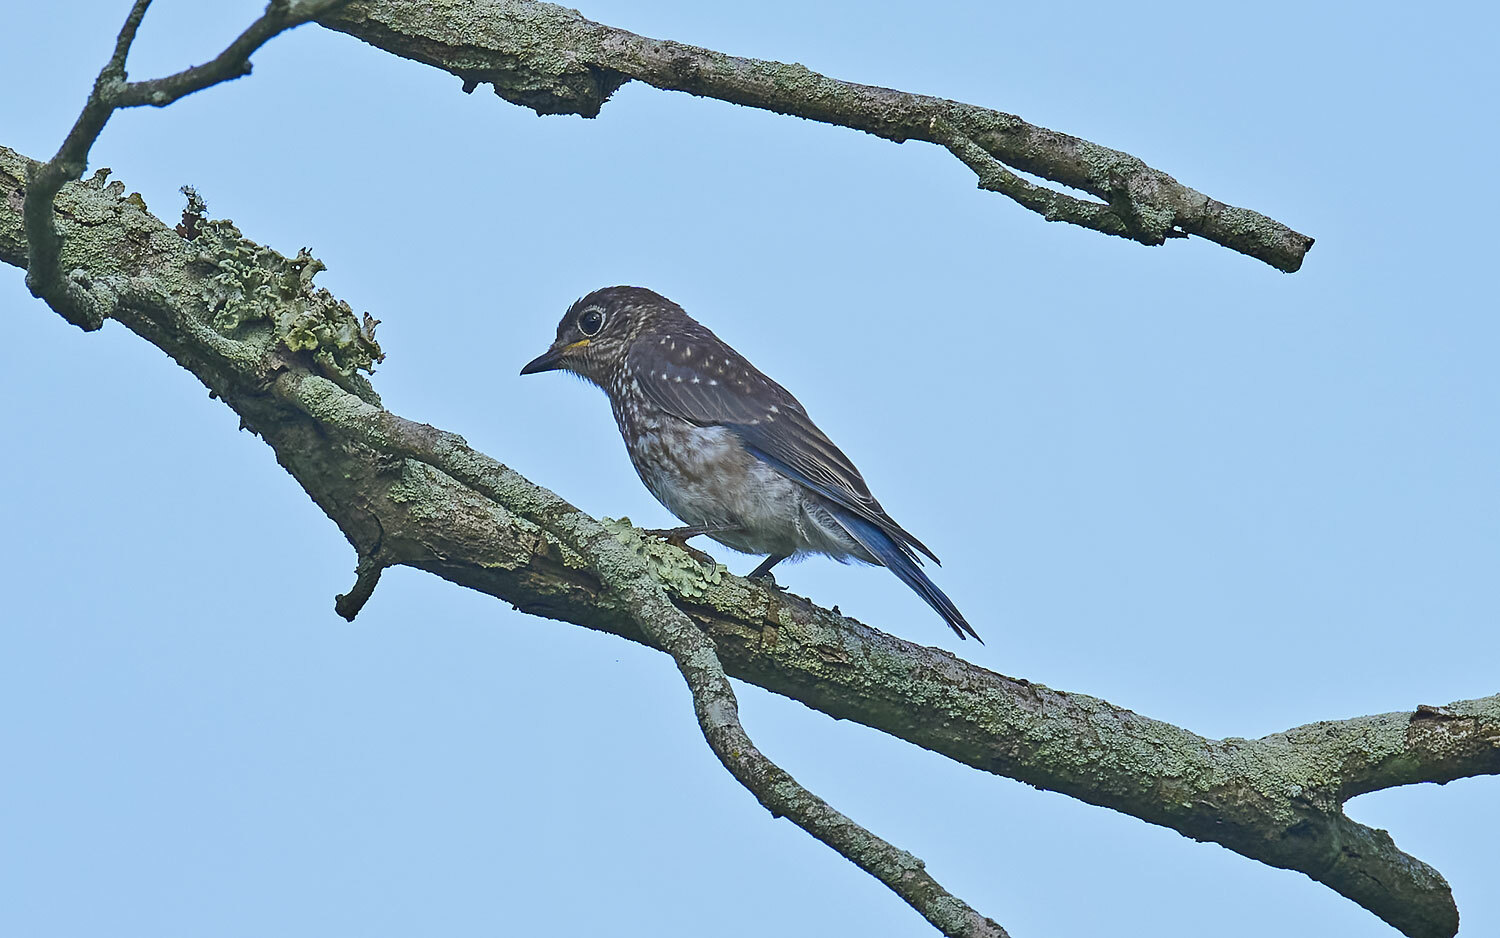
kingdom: Animalia
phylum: Chordata
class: Aves
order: Passeriformes
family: Turdidae
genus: Sialia
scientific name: Sialia sialis
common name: Eastern bluebird
